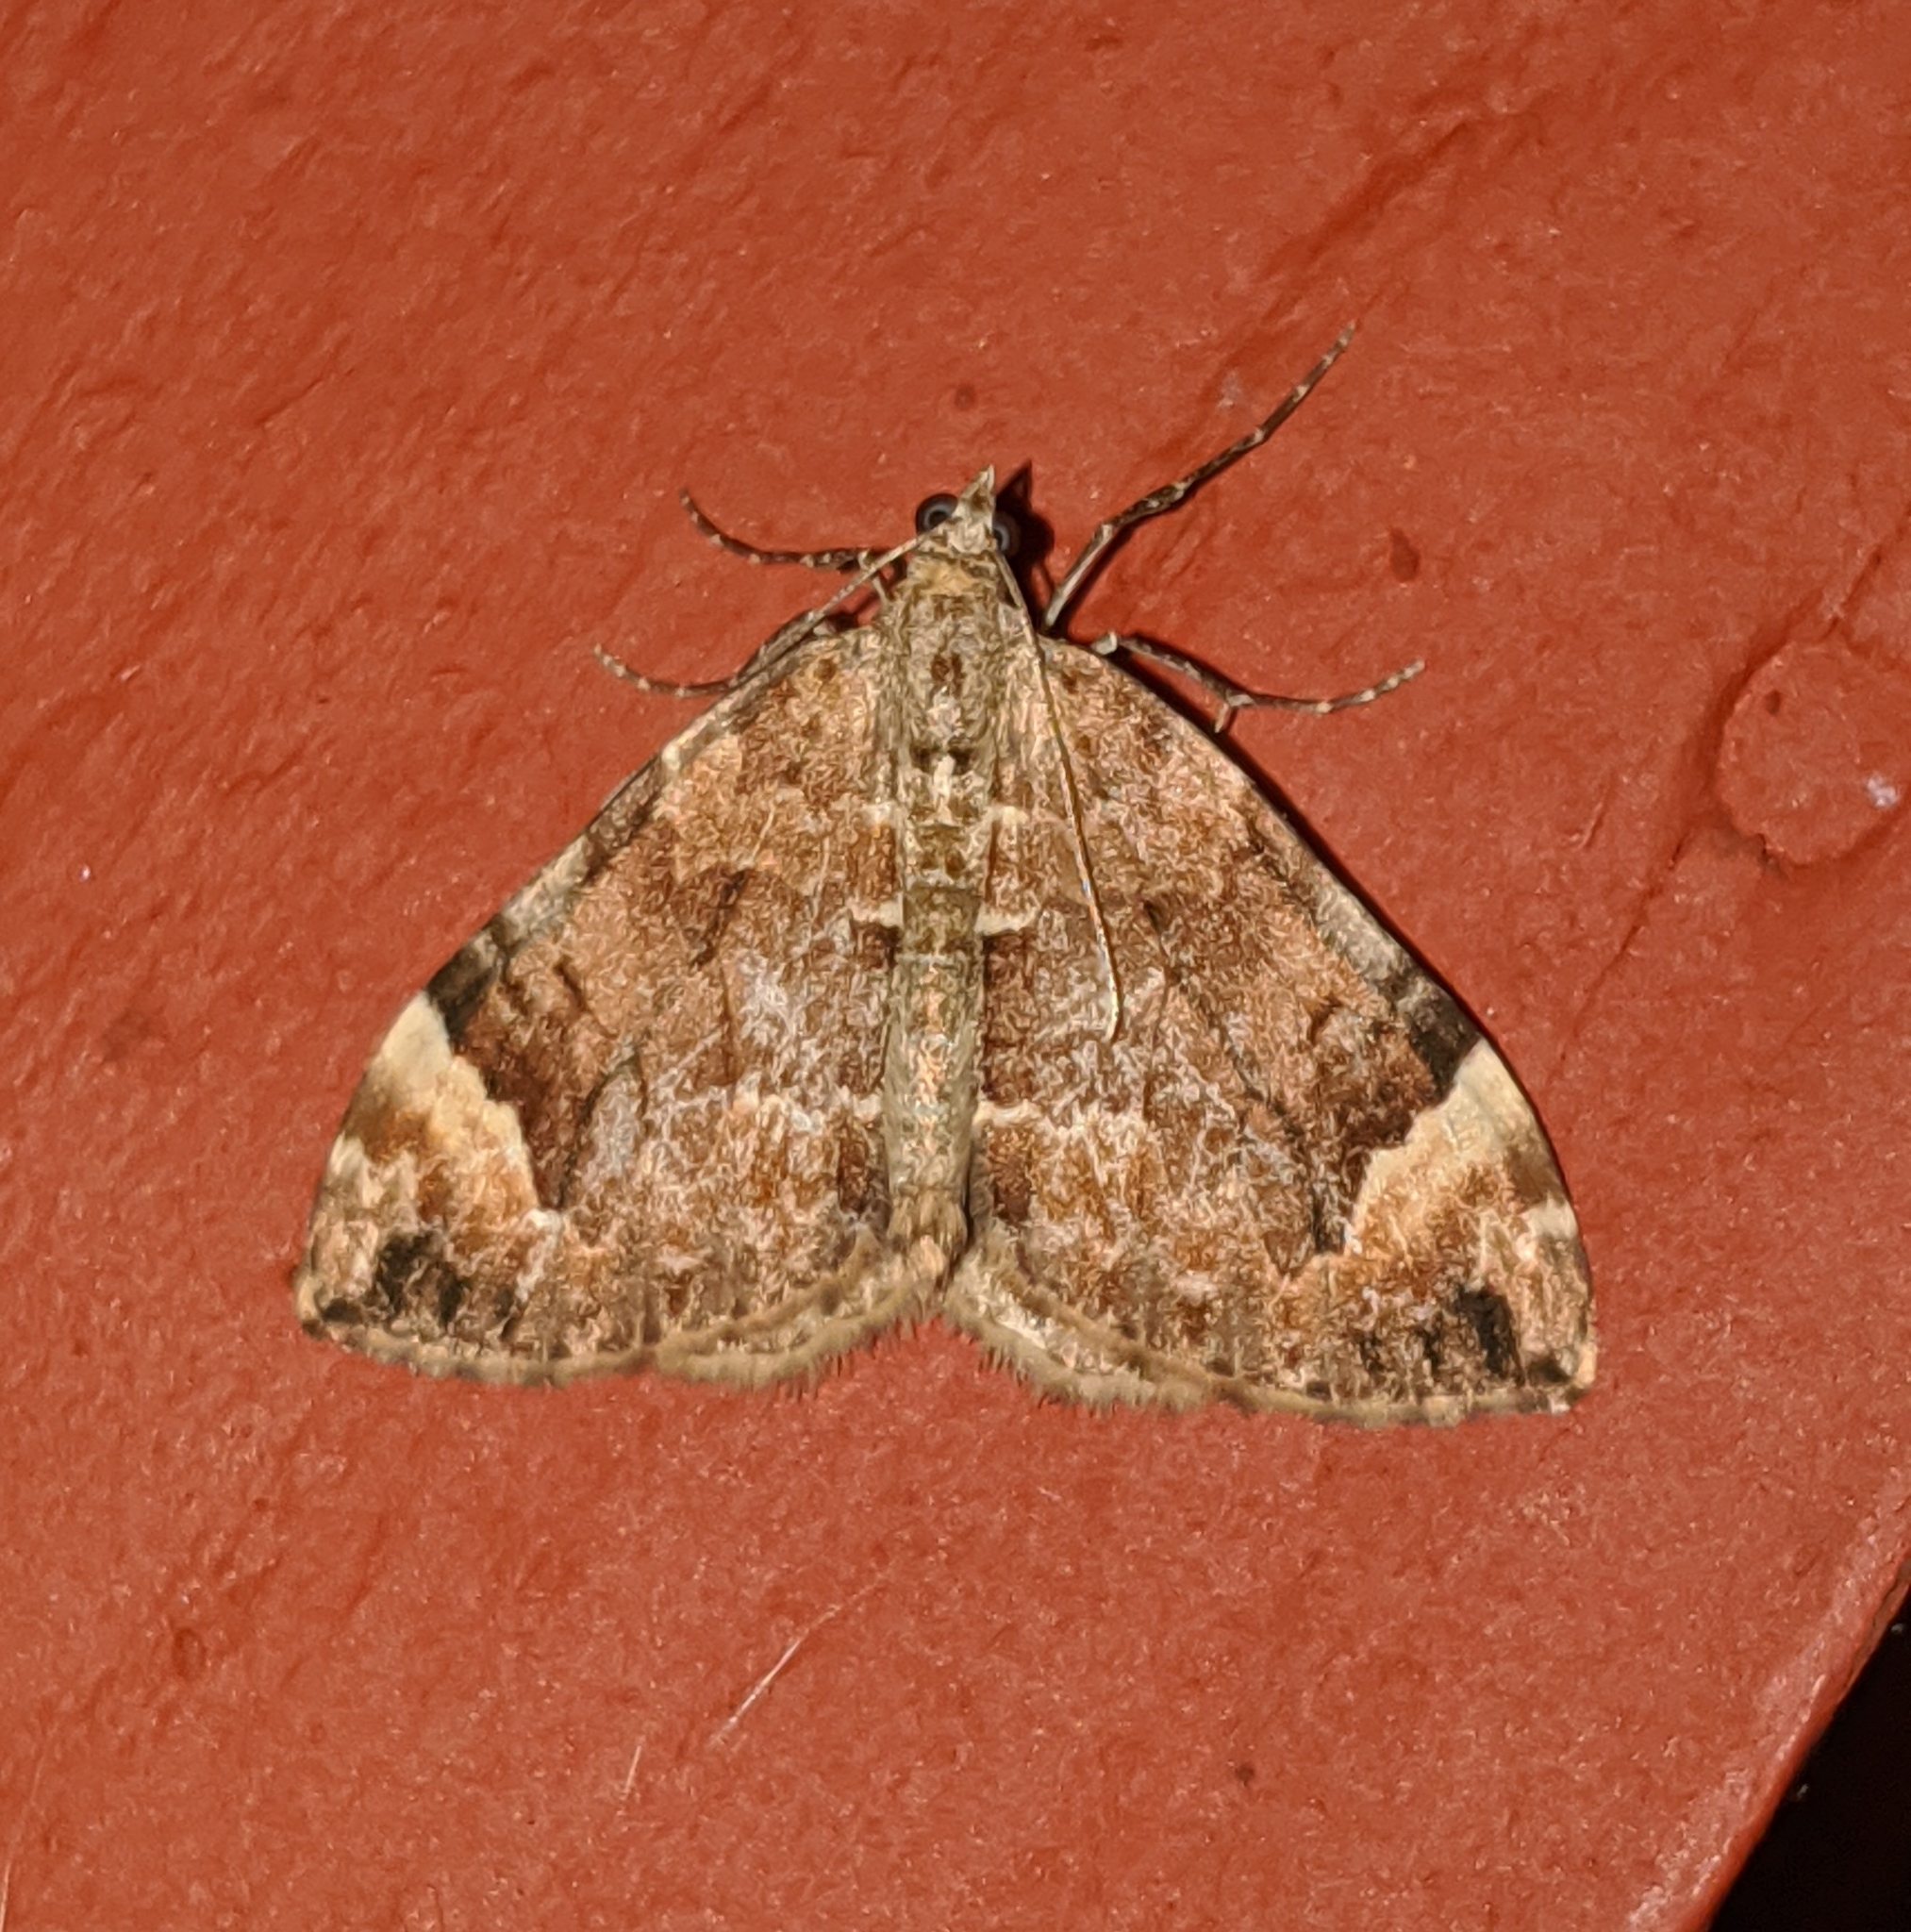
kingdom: Animalia
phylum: Arthropoda
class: Insecta
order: Lepidoptera
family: Geometridae
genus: Dysstroma
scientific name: Dysstroma citrata
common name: Dark marbled carpet
